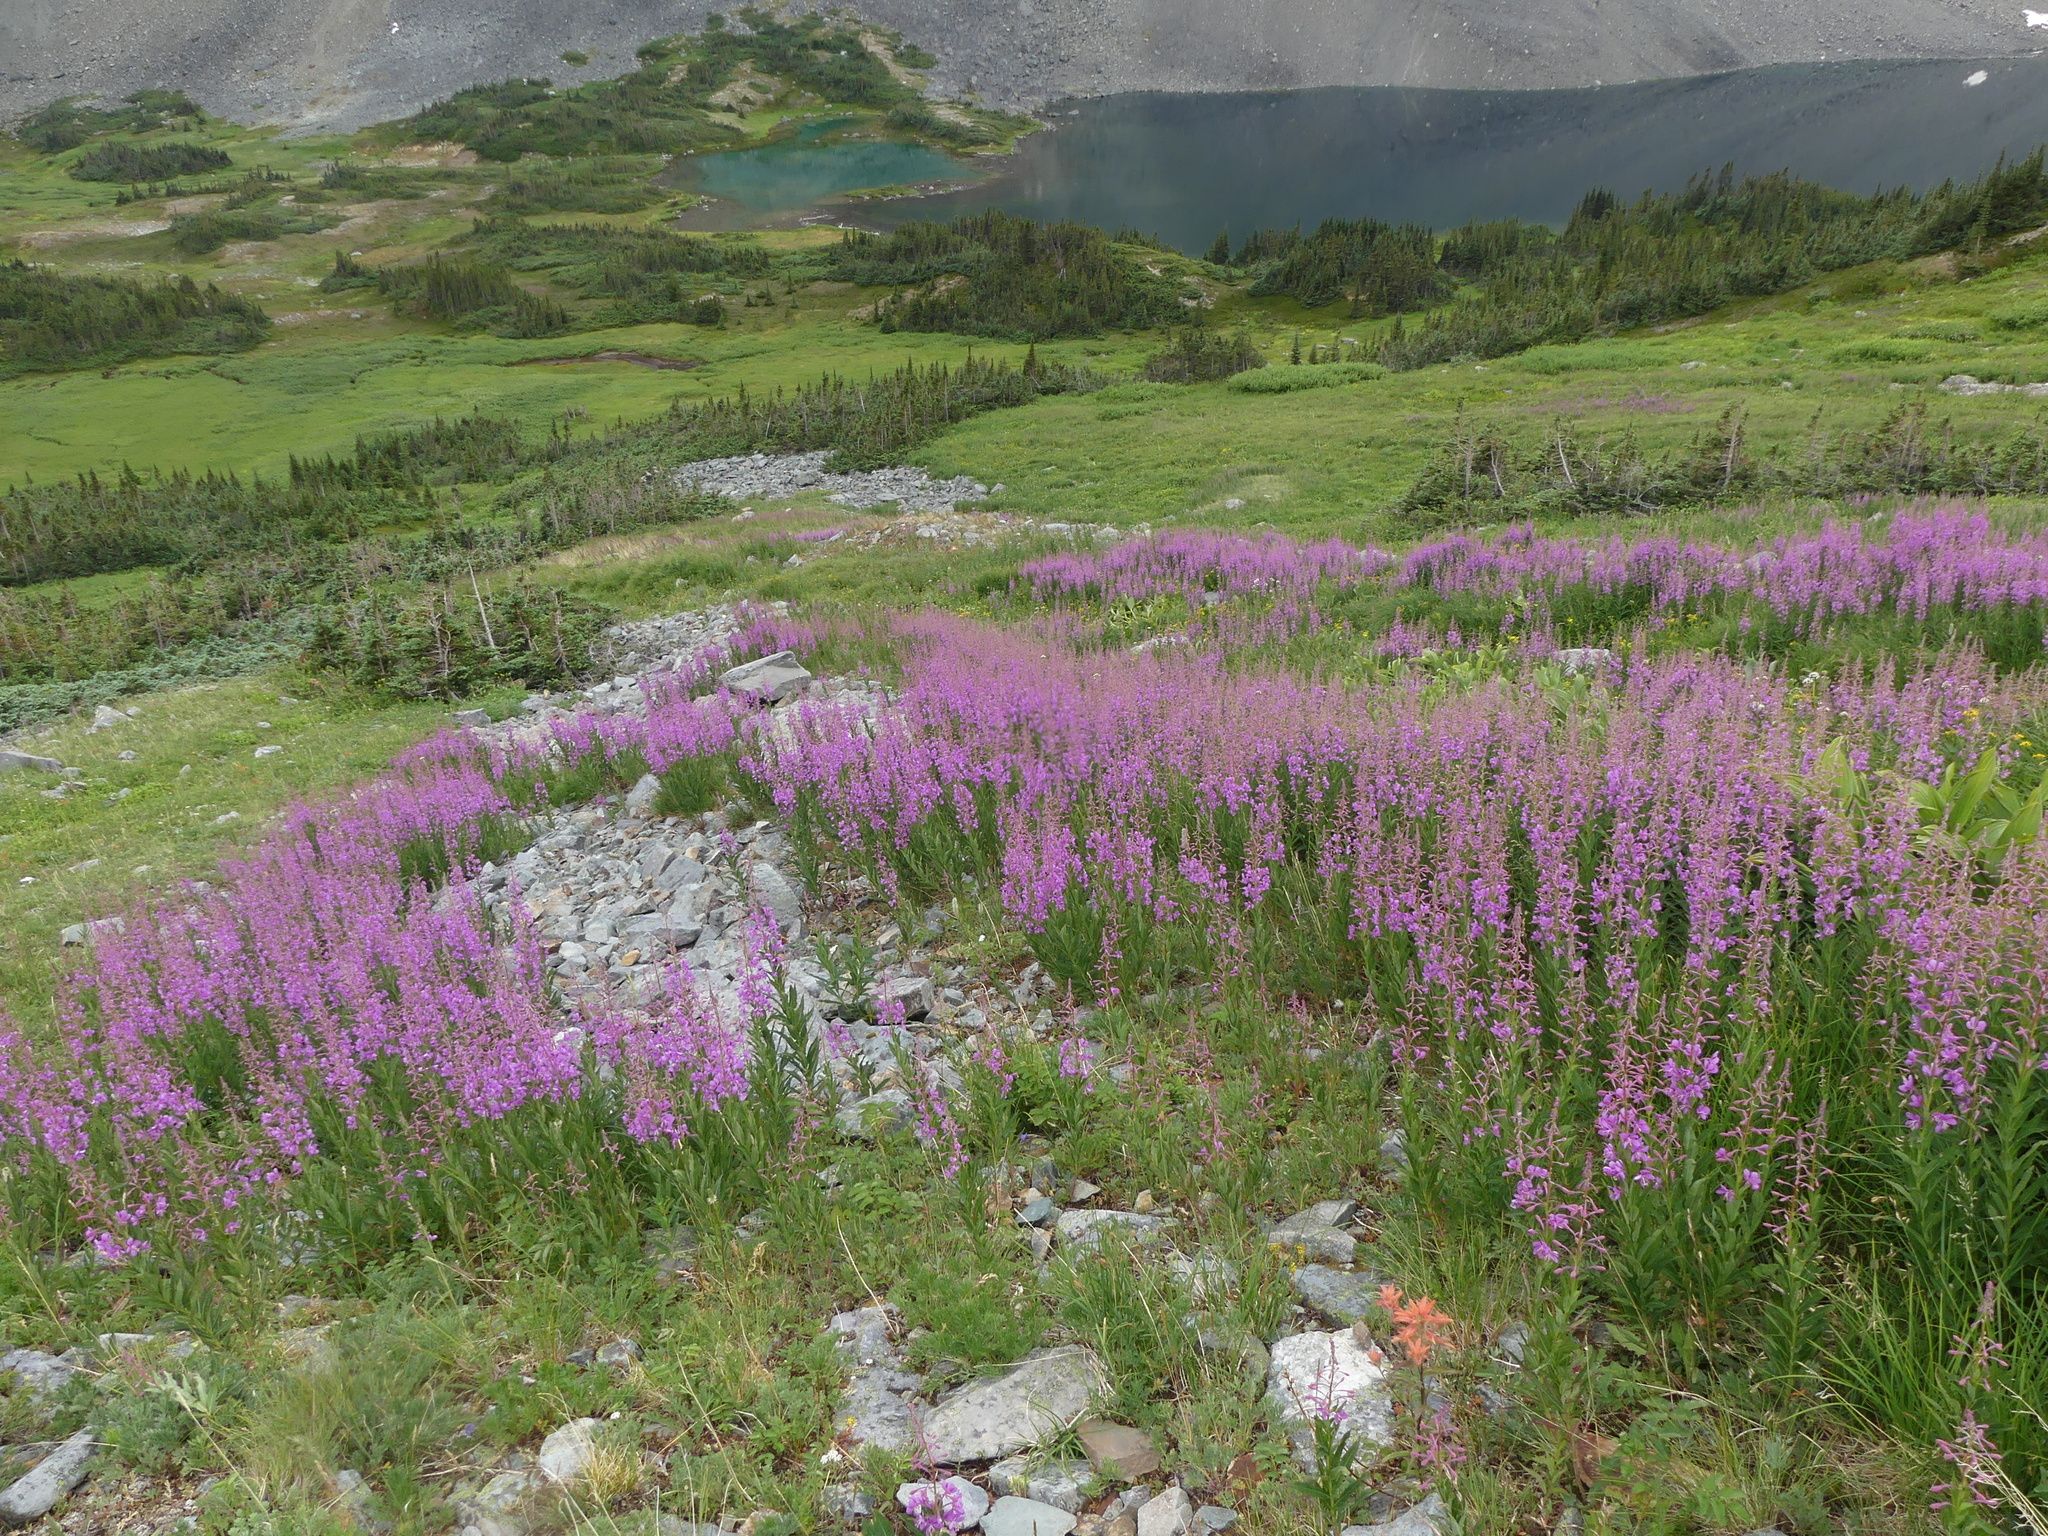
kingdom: Plantae
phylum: Tracheophyta
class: Magnoliopsida
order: Myrtales
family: Onagraceae
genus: Chamaenerion
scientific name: Chamaenerion angustifolium
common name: Fireweed
